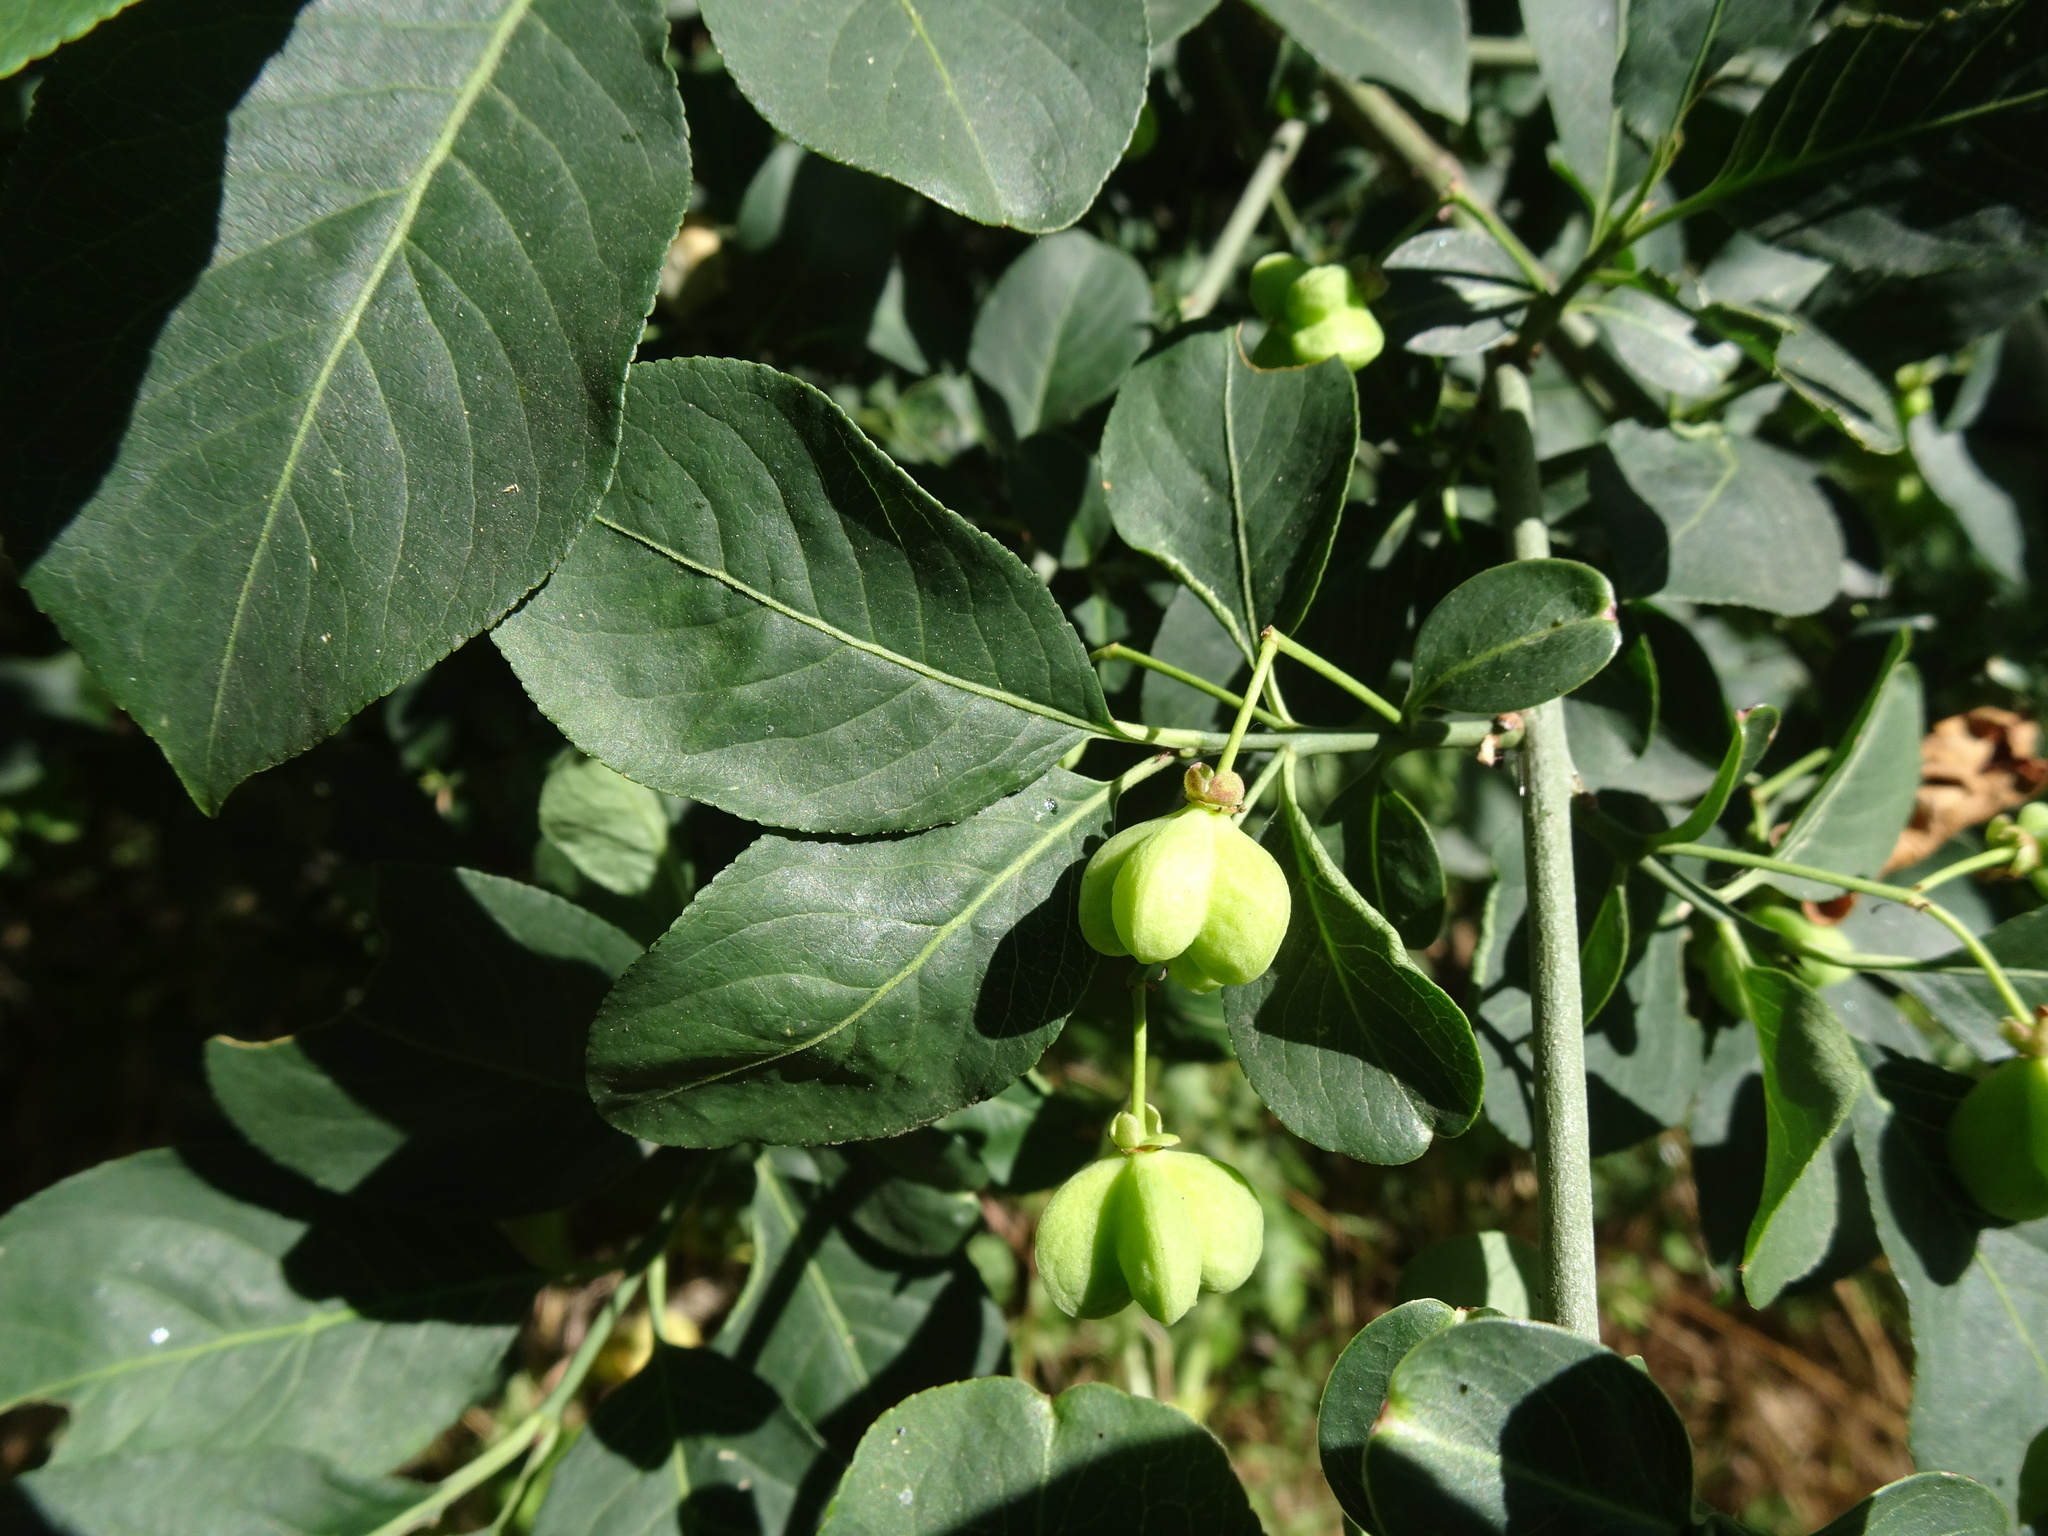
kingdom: Plantae
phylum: Tracheophyta
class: Magnoliopsida
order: Celastrales
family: Celastraceae
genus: Euonymus
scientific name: Euonymus europaeus
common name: Spindle
